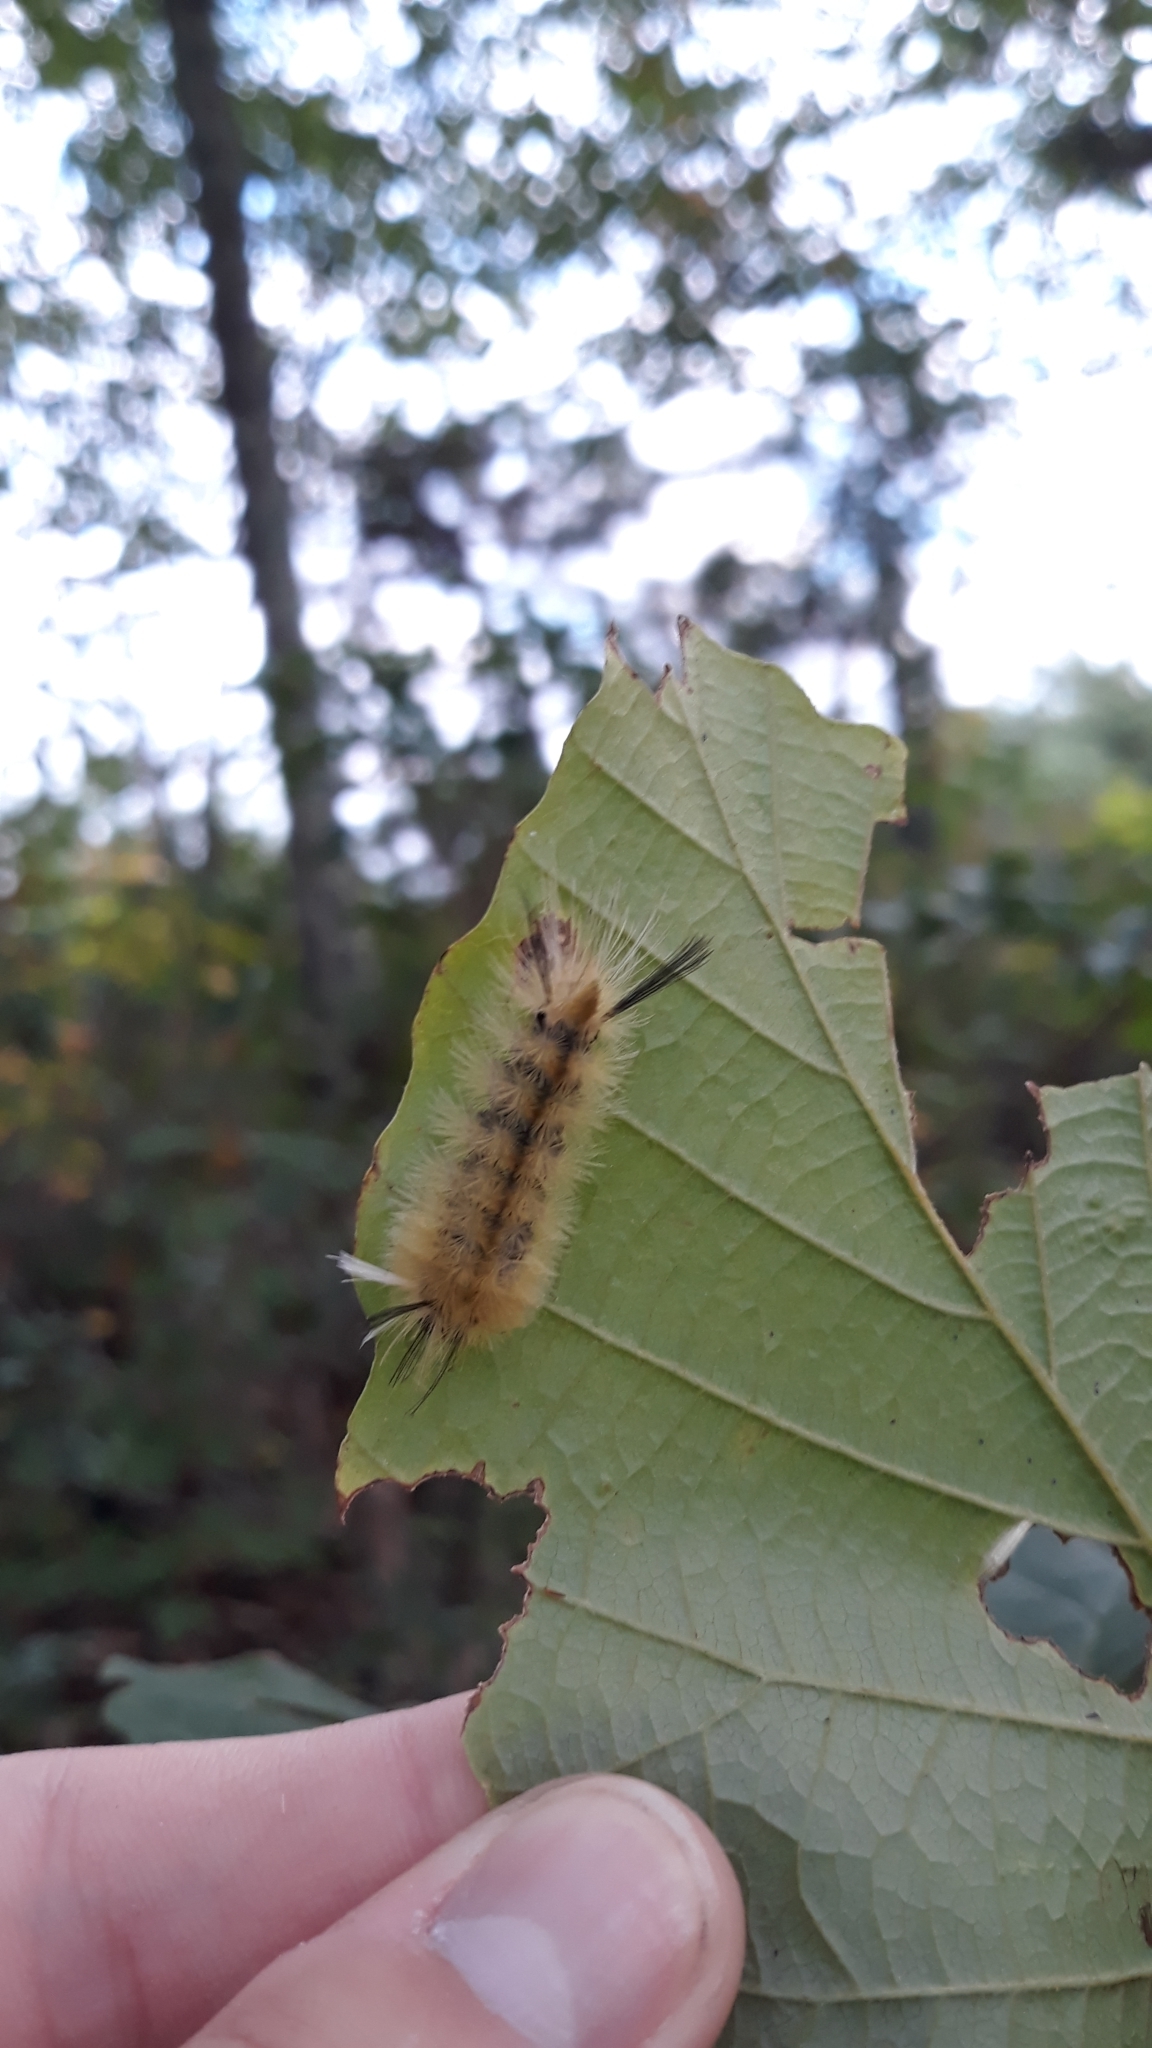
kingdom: Animalia
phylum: Arthropoda
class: Insecta
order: Lepidoptera
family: Erebidae
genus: Halysidota
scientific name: Halysidota tessellaris
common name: Banded tussock moth
